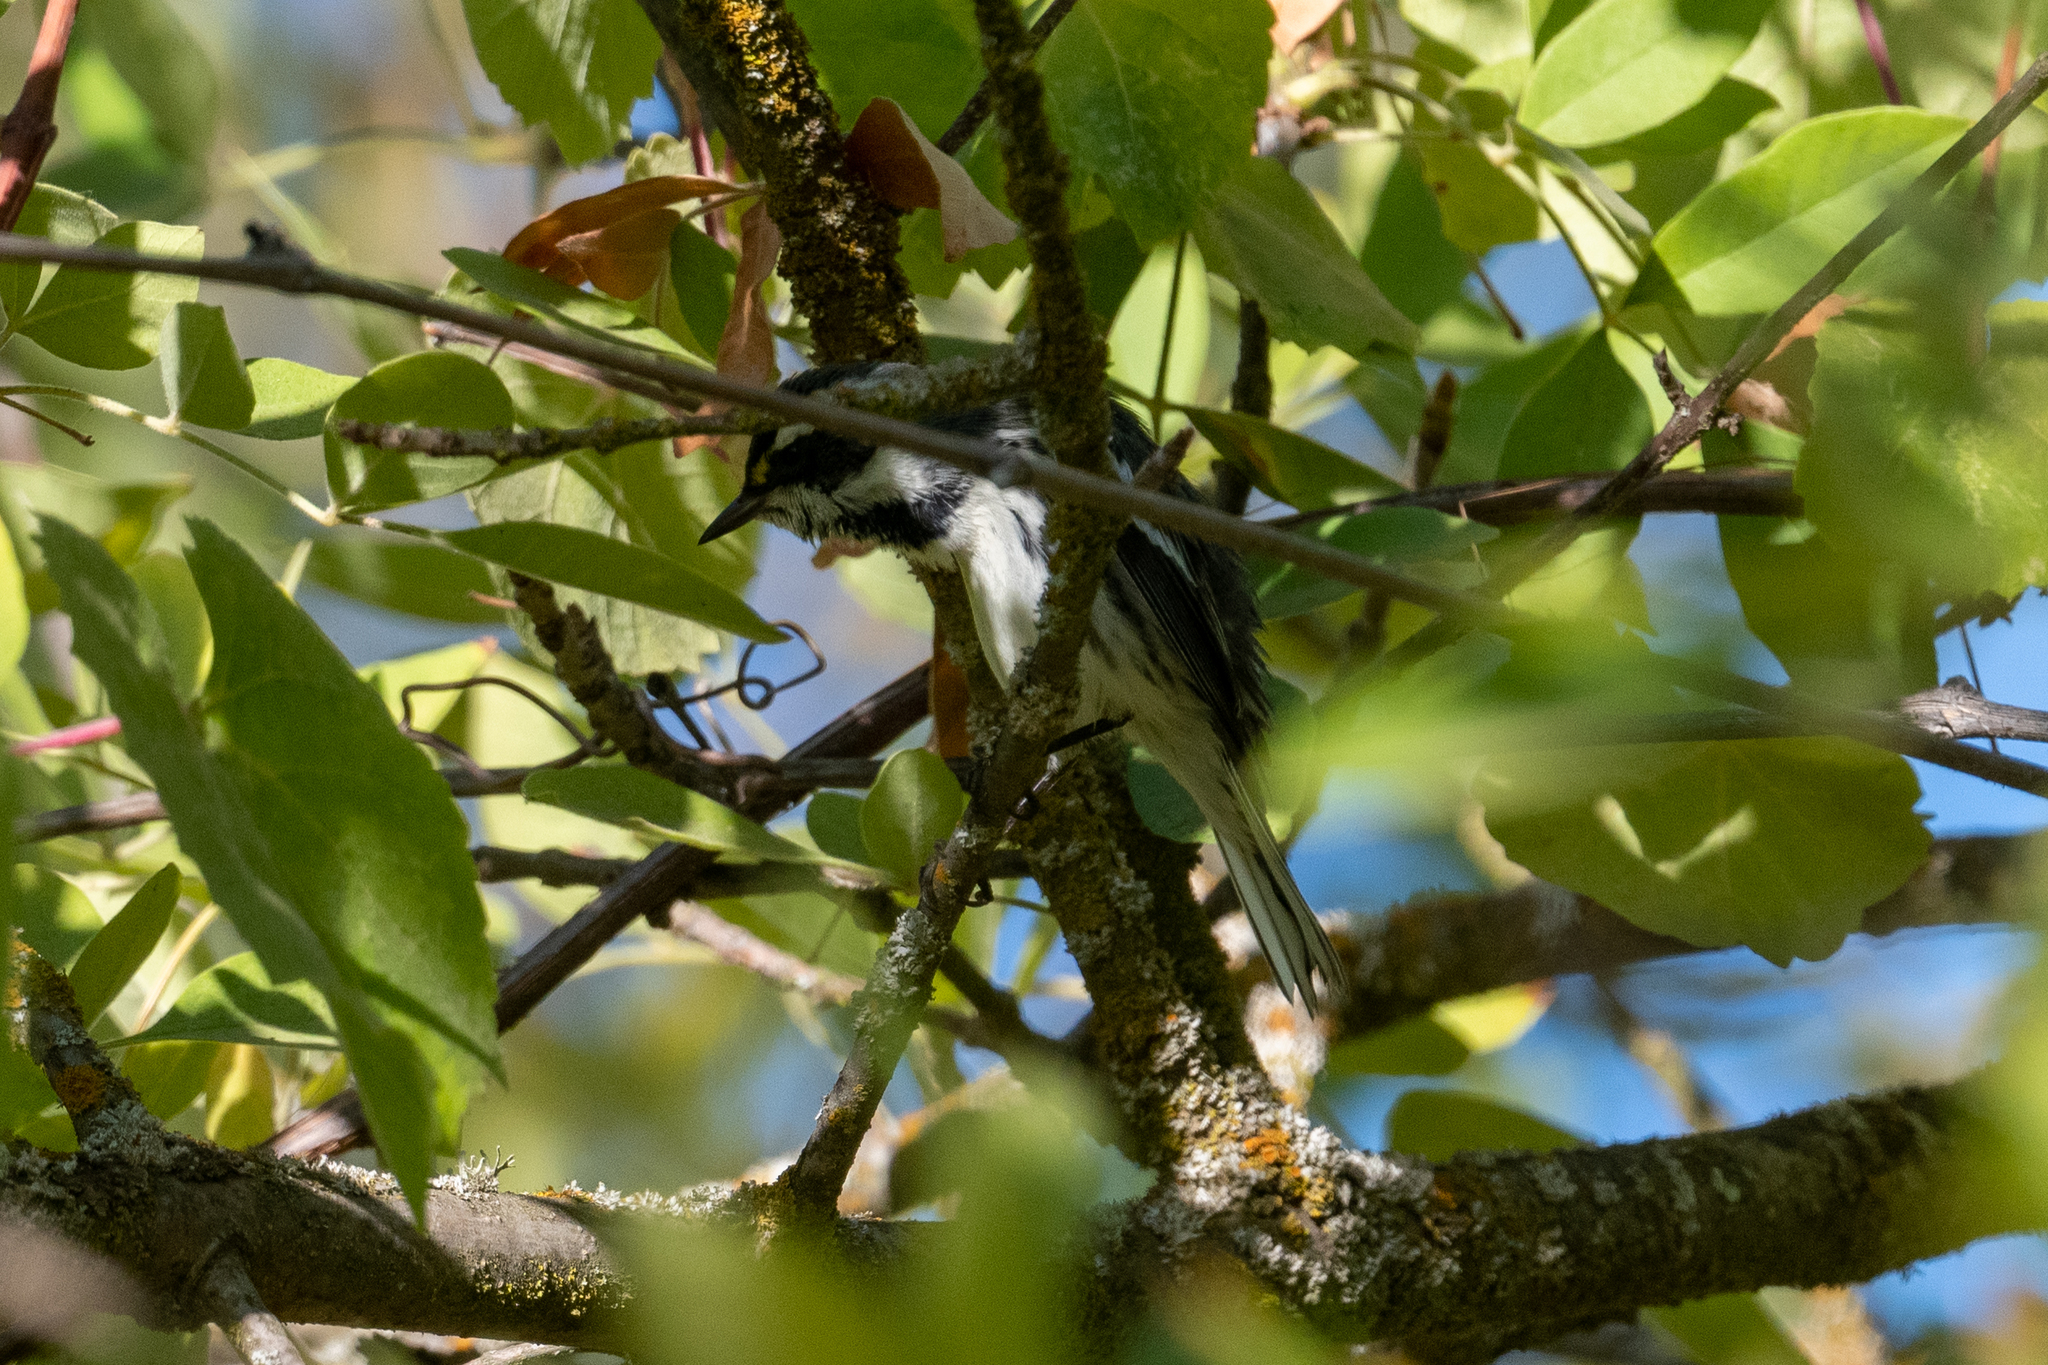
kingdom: Animalia
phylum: Chordata
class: Aves
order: Passeriformes
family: Parulidae
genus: Setophaga
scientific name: Setophaga nigrescens
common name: Black-throated gray warbler
